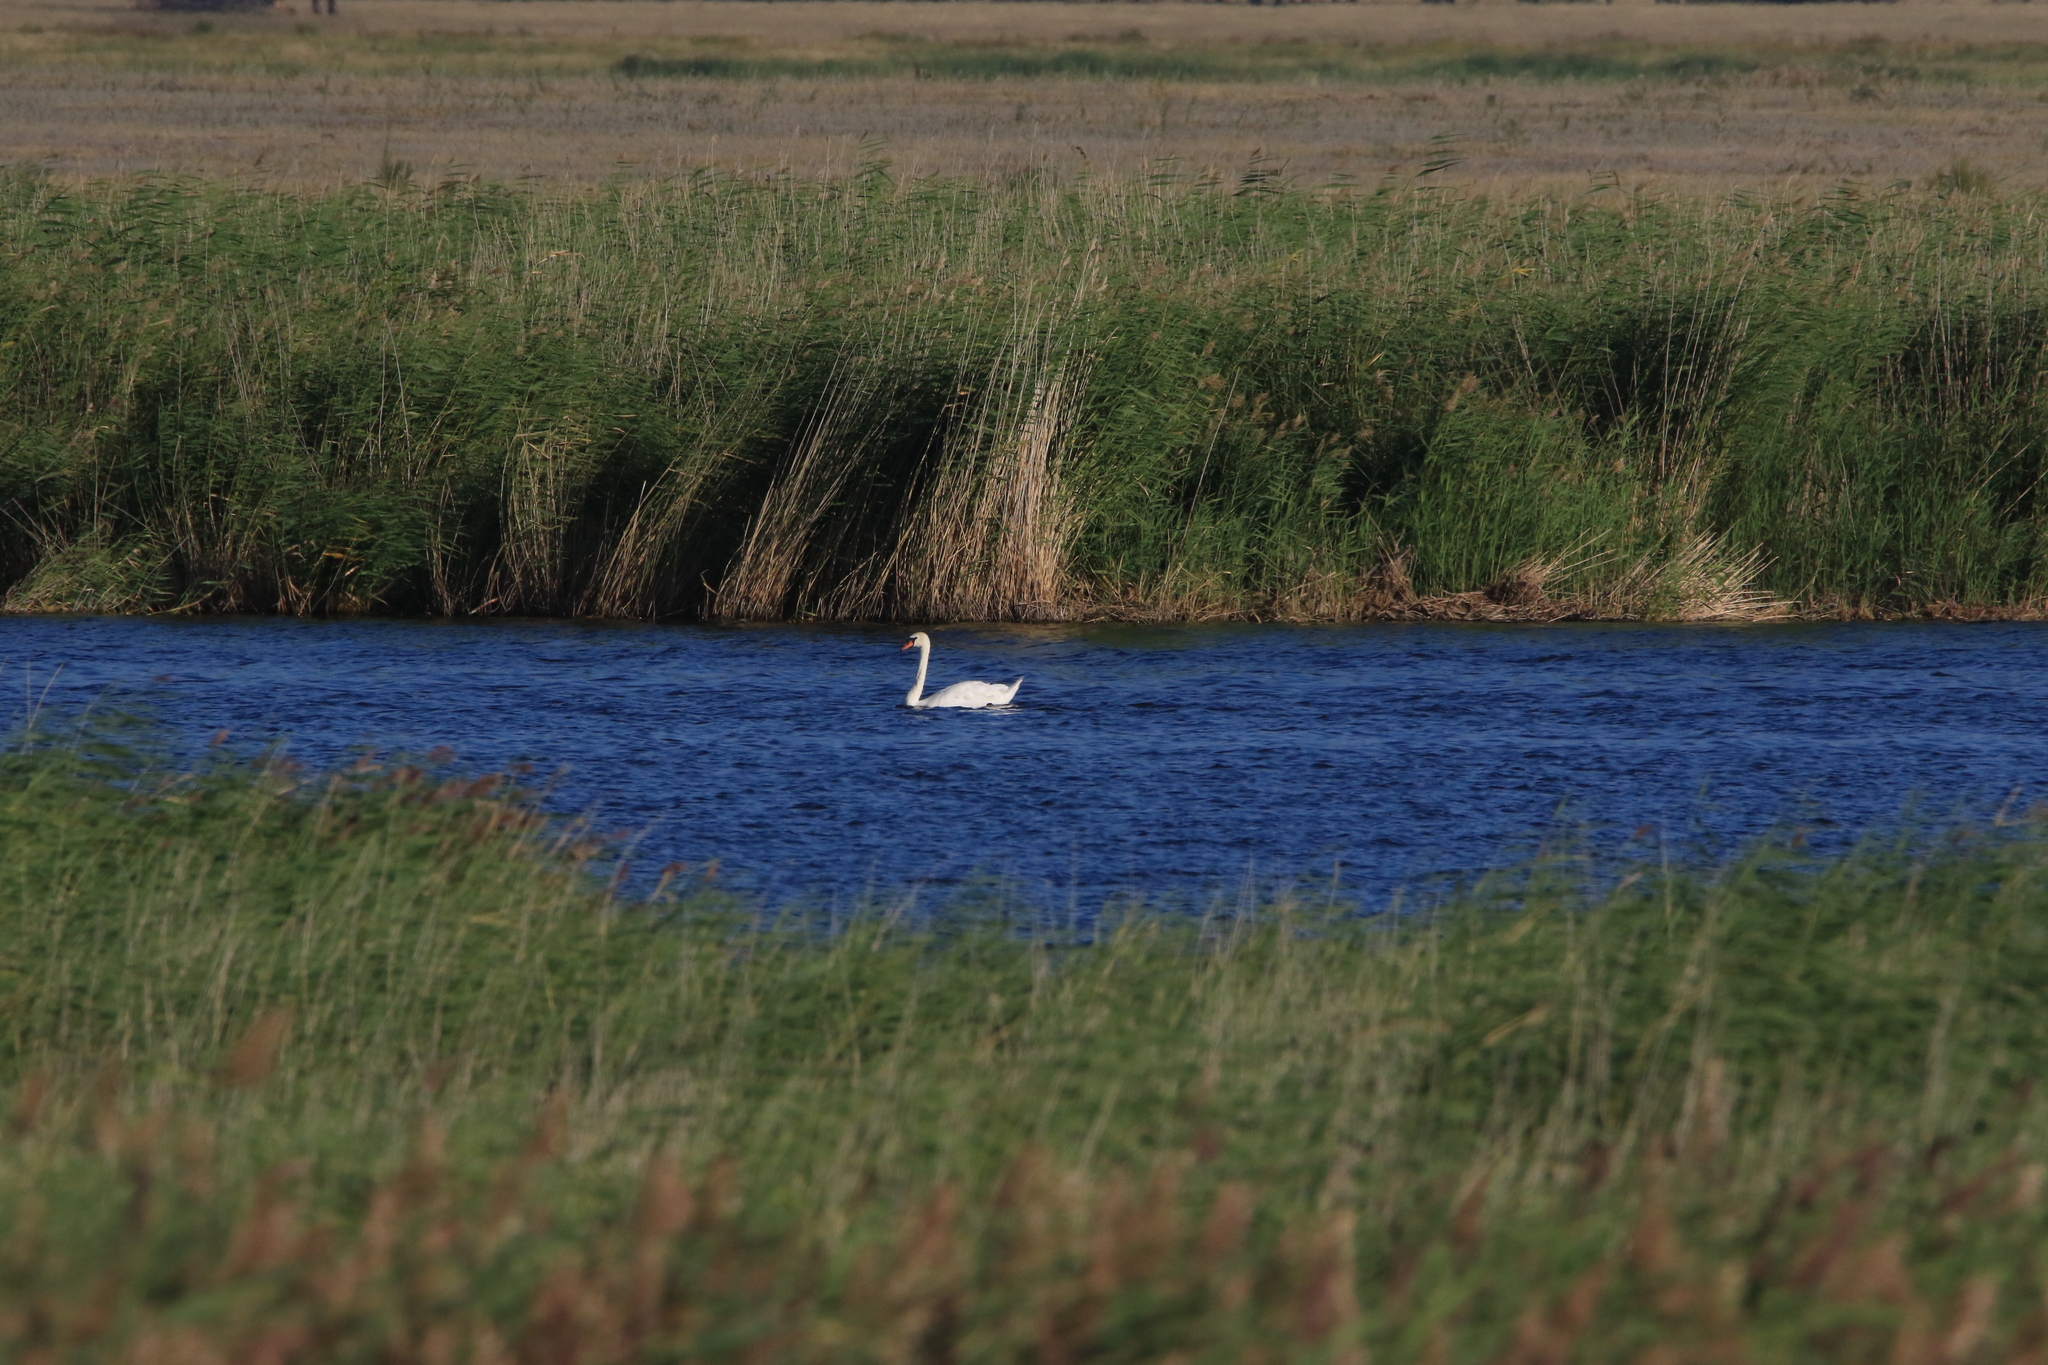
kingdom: Animalia
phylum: Chordata
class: Aves
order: Anseriformes
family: Anatidae
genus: Cygnus
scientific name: Cygnus olor
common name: Mute swan
